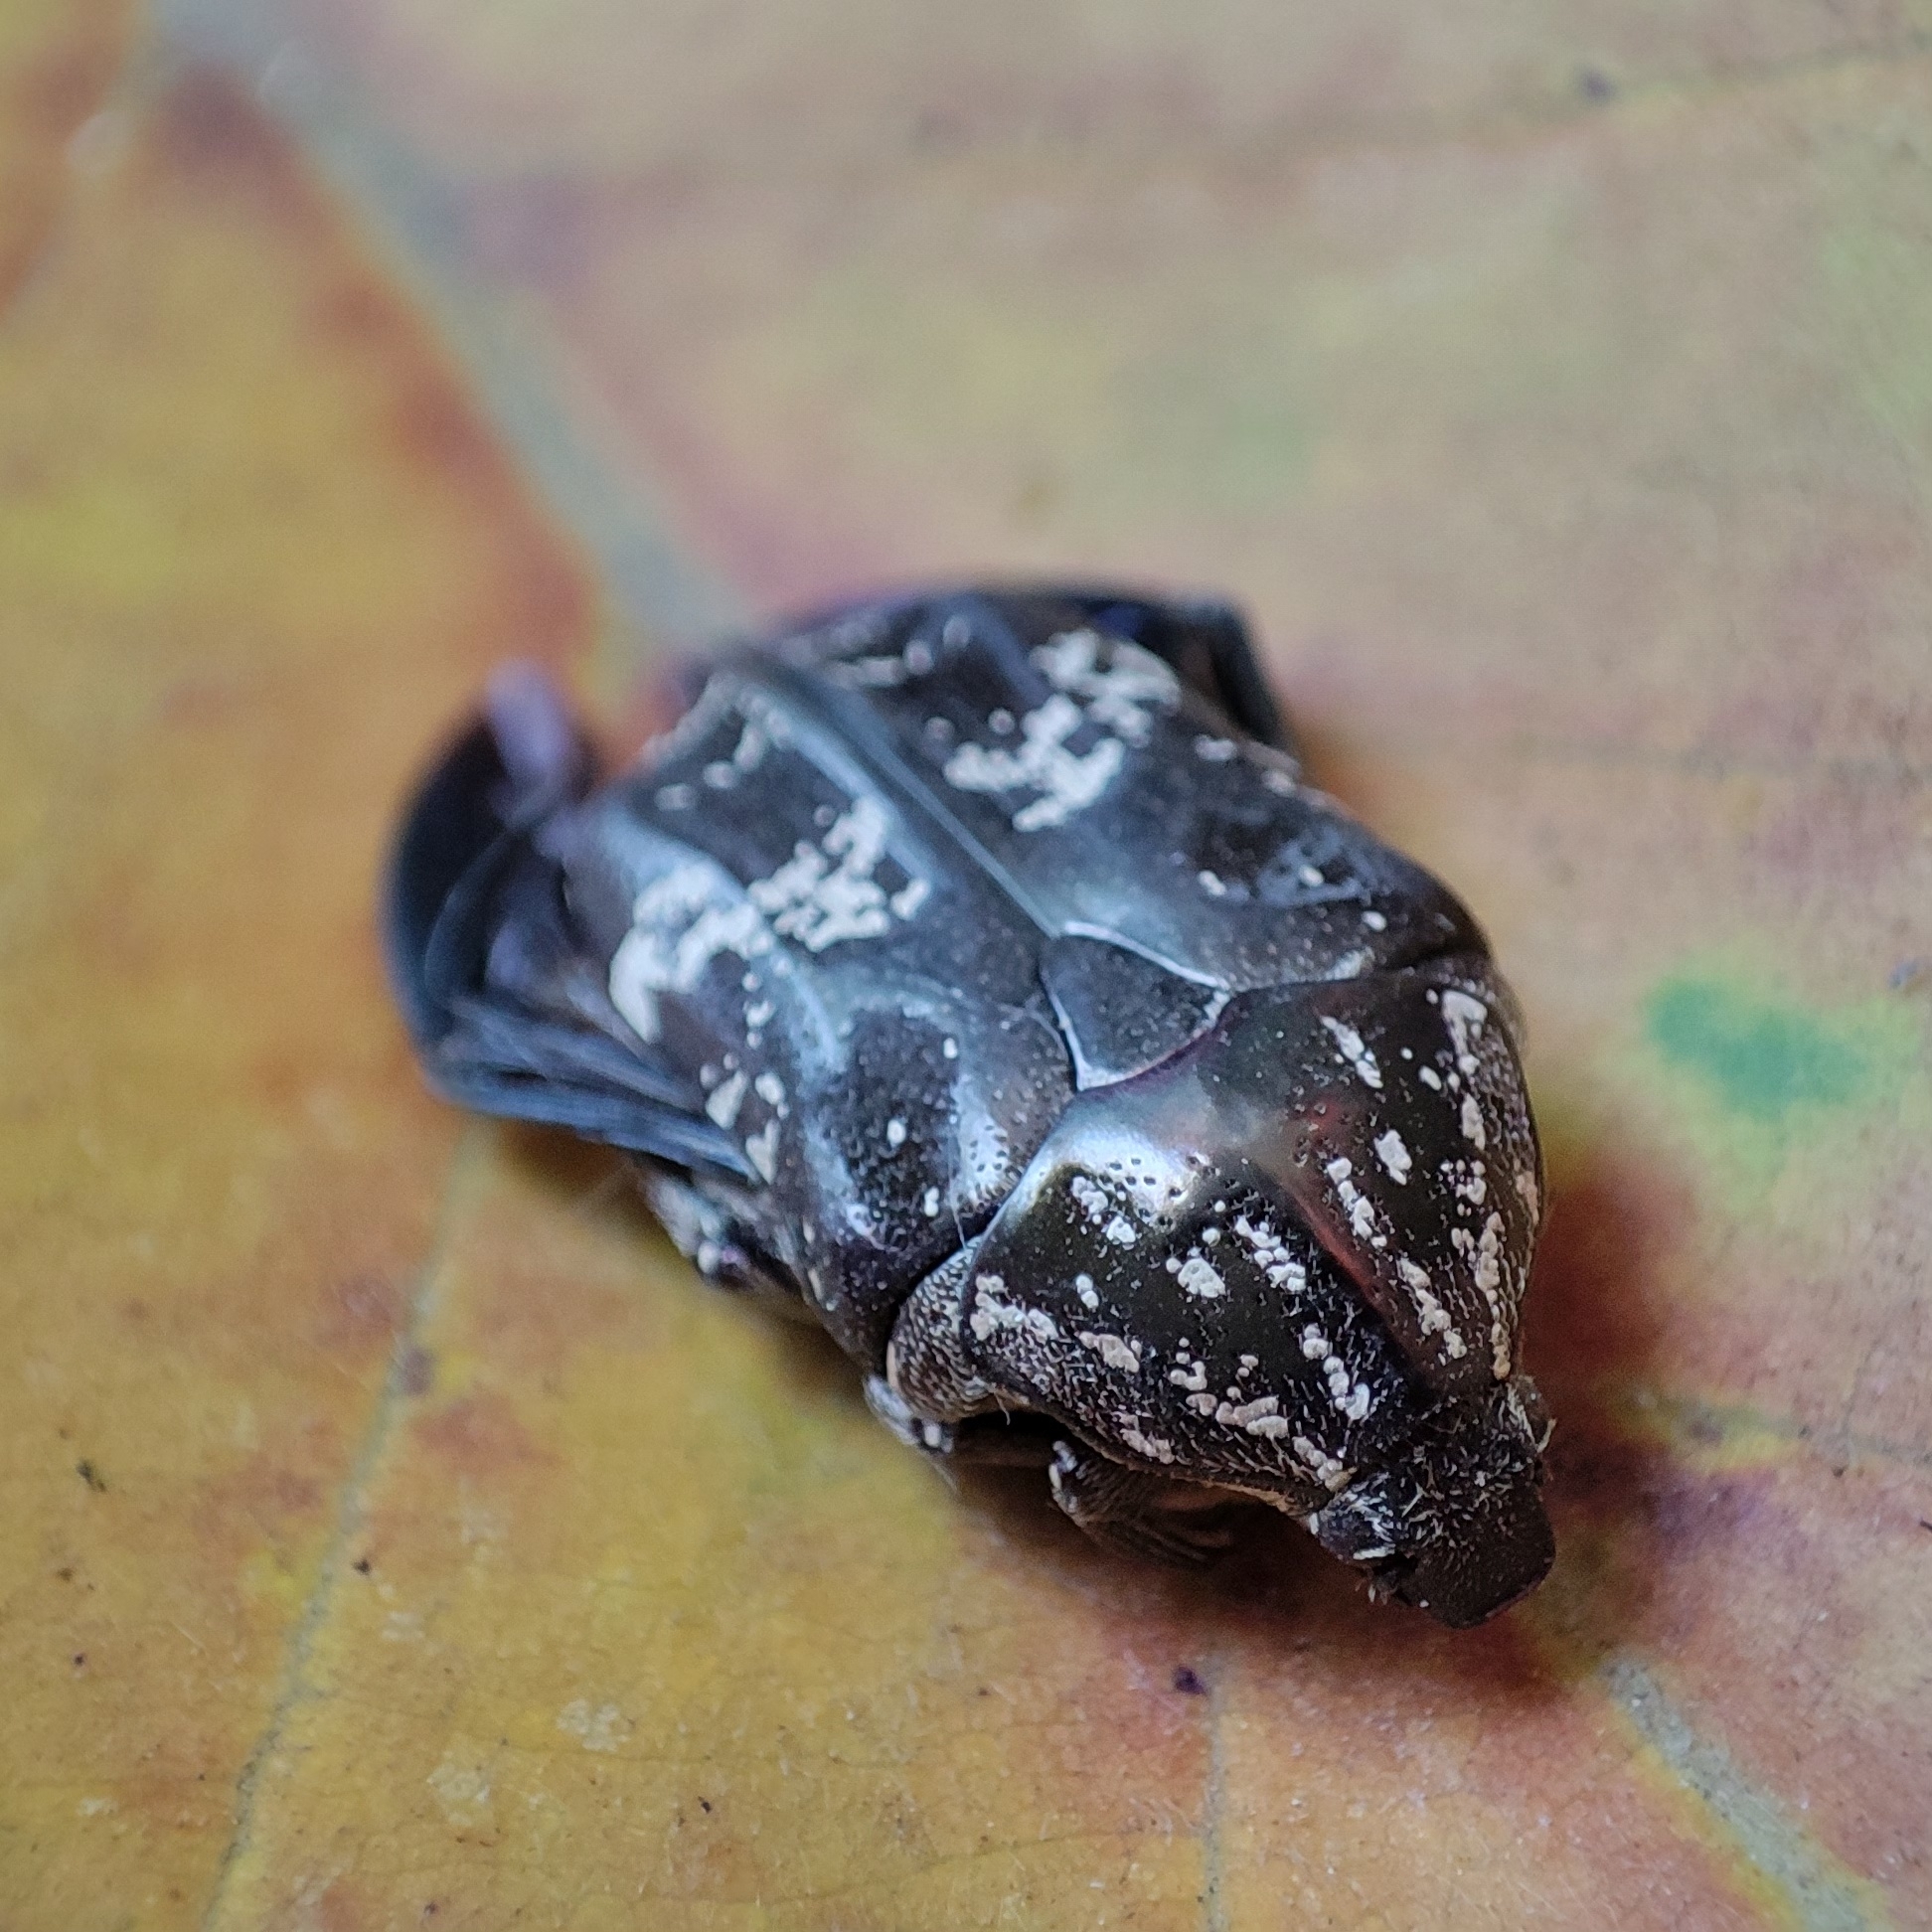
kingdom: Animalia
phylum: Arthropoda
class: Insecta
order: Coleoptera
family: Scarabaeidae
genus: Protaetia
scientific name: Protaetia acuminata
